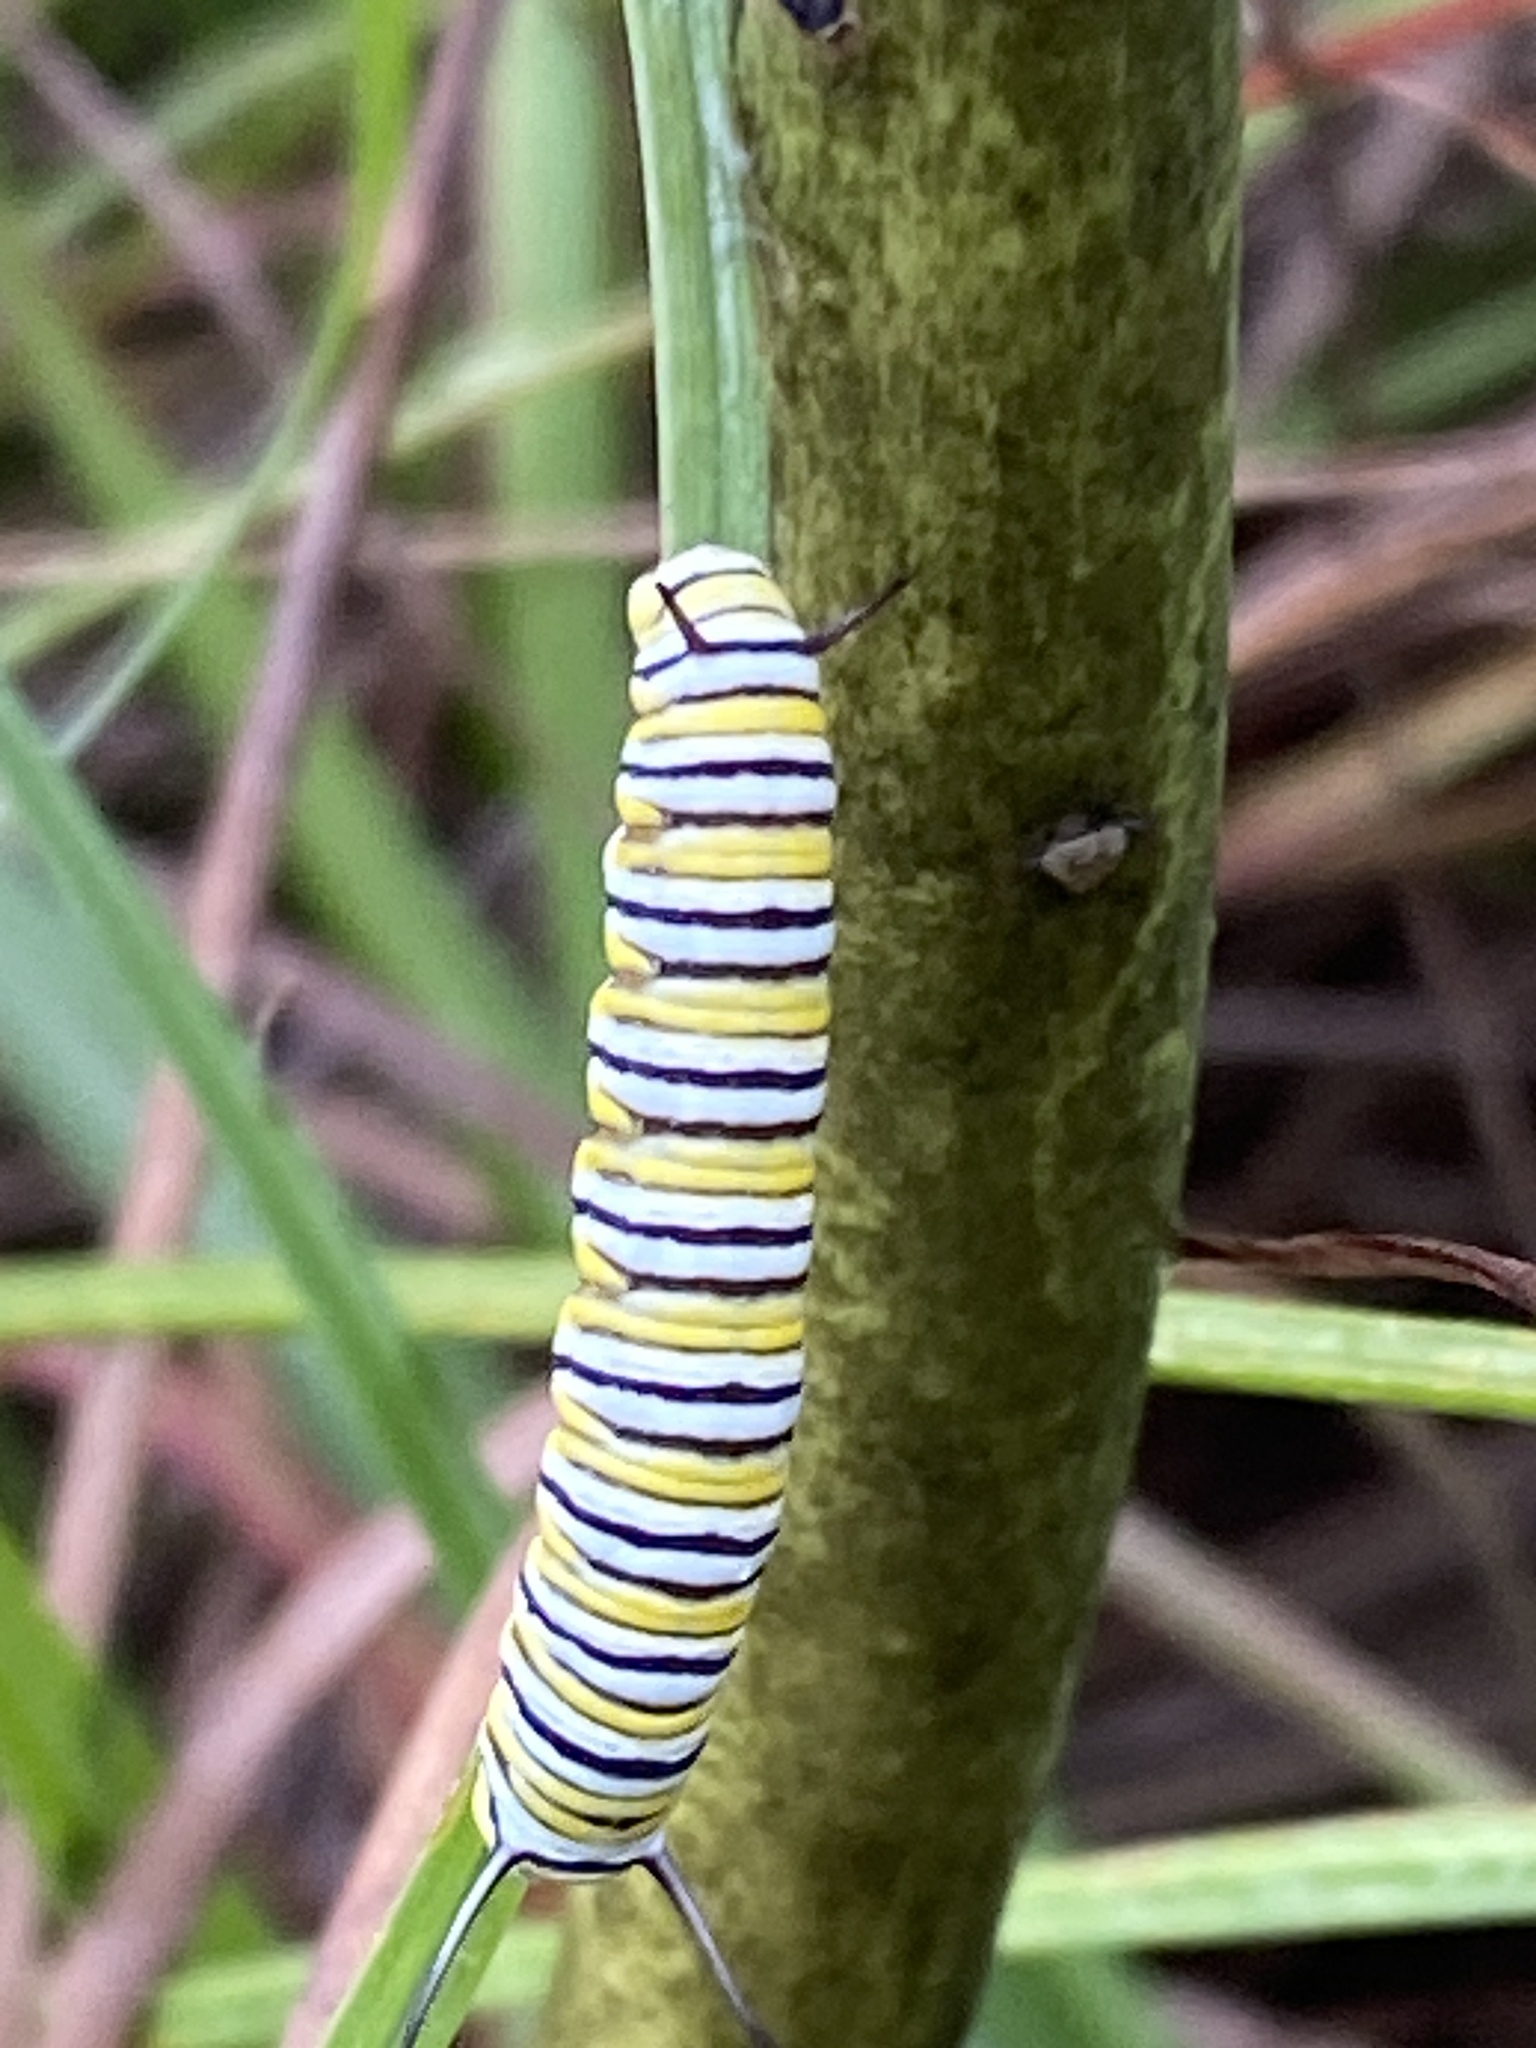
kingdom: Animalia
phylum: Arthropoda
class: Insecta
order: Lepidoptera
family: Nymphalidae
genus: Danaus
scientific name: Danaus plexippus
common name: Monarch
